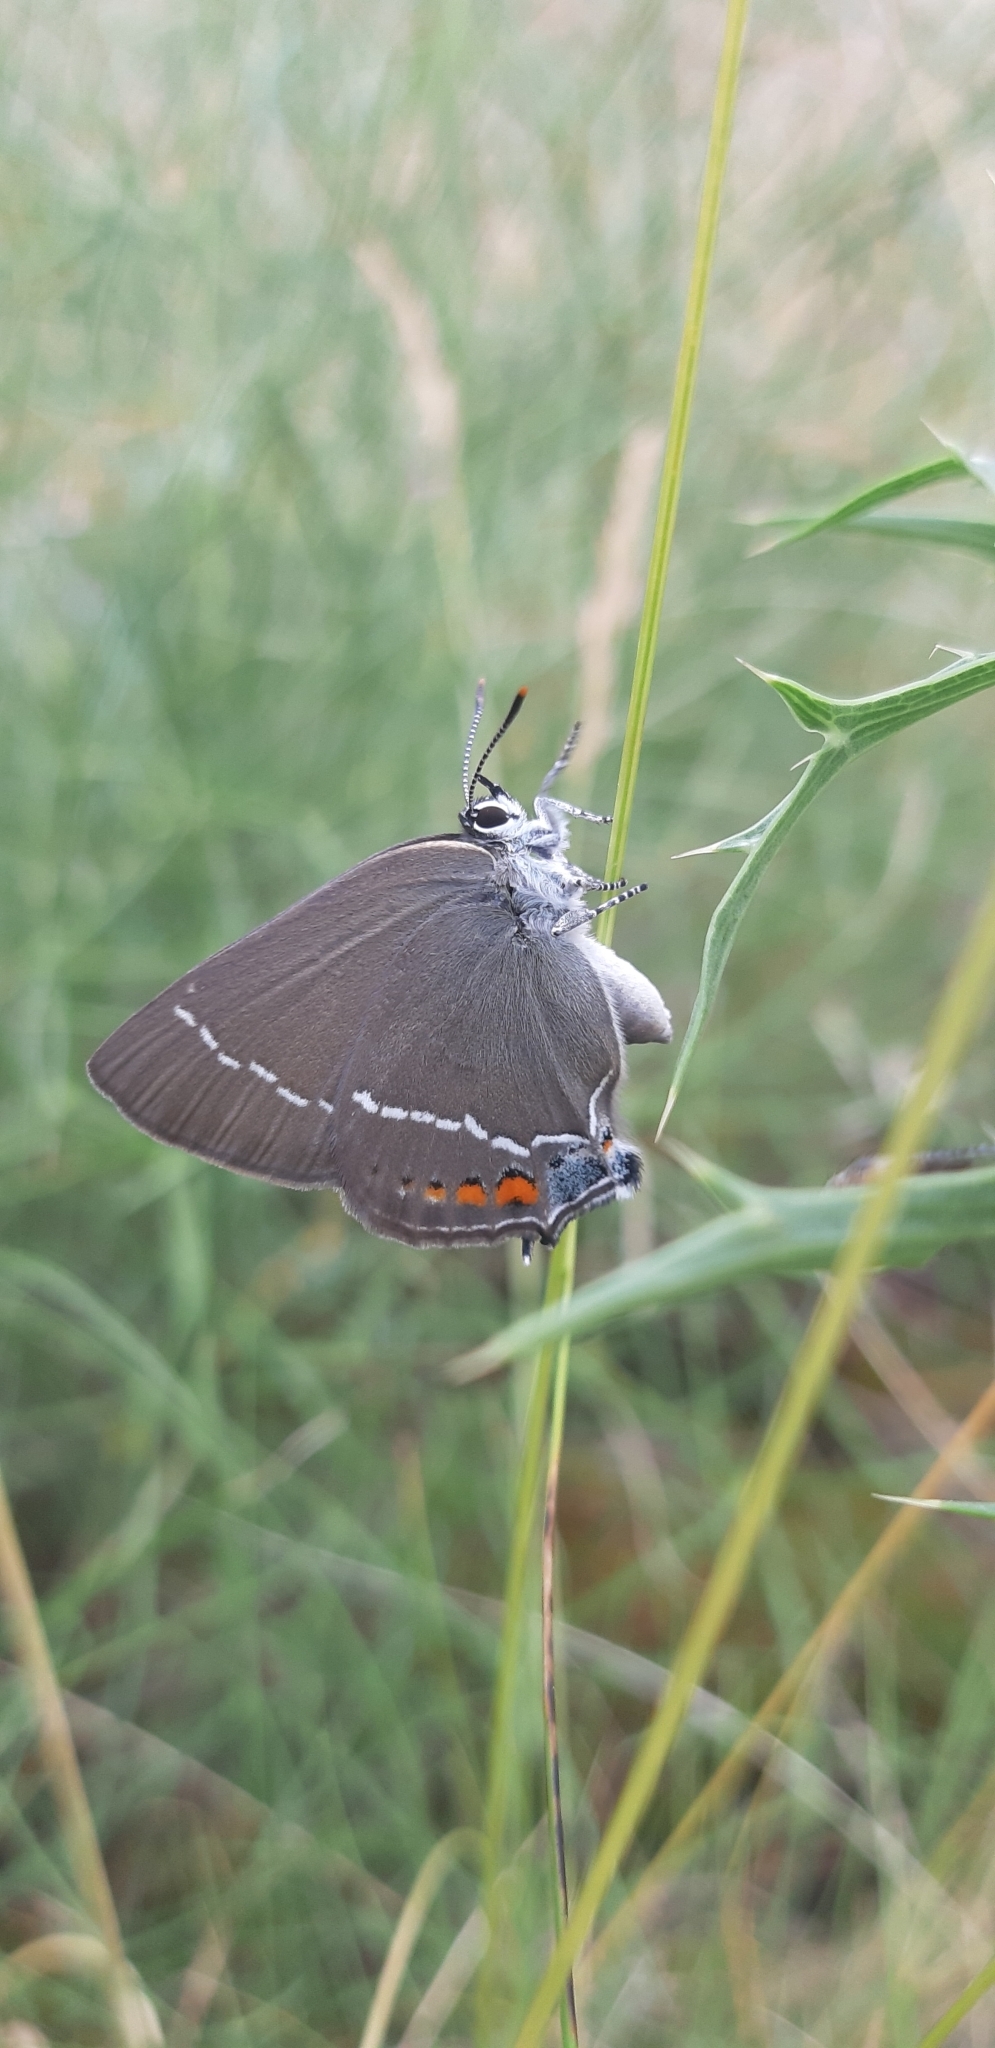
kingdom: Animalia
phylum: Arthropoda
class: Insecta
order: Lepidoptera
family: Lycaenidae
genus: Tuttiola
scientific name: Tuttiola spini
